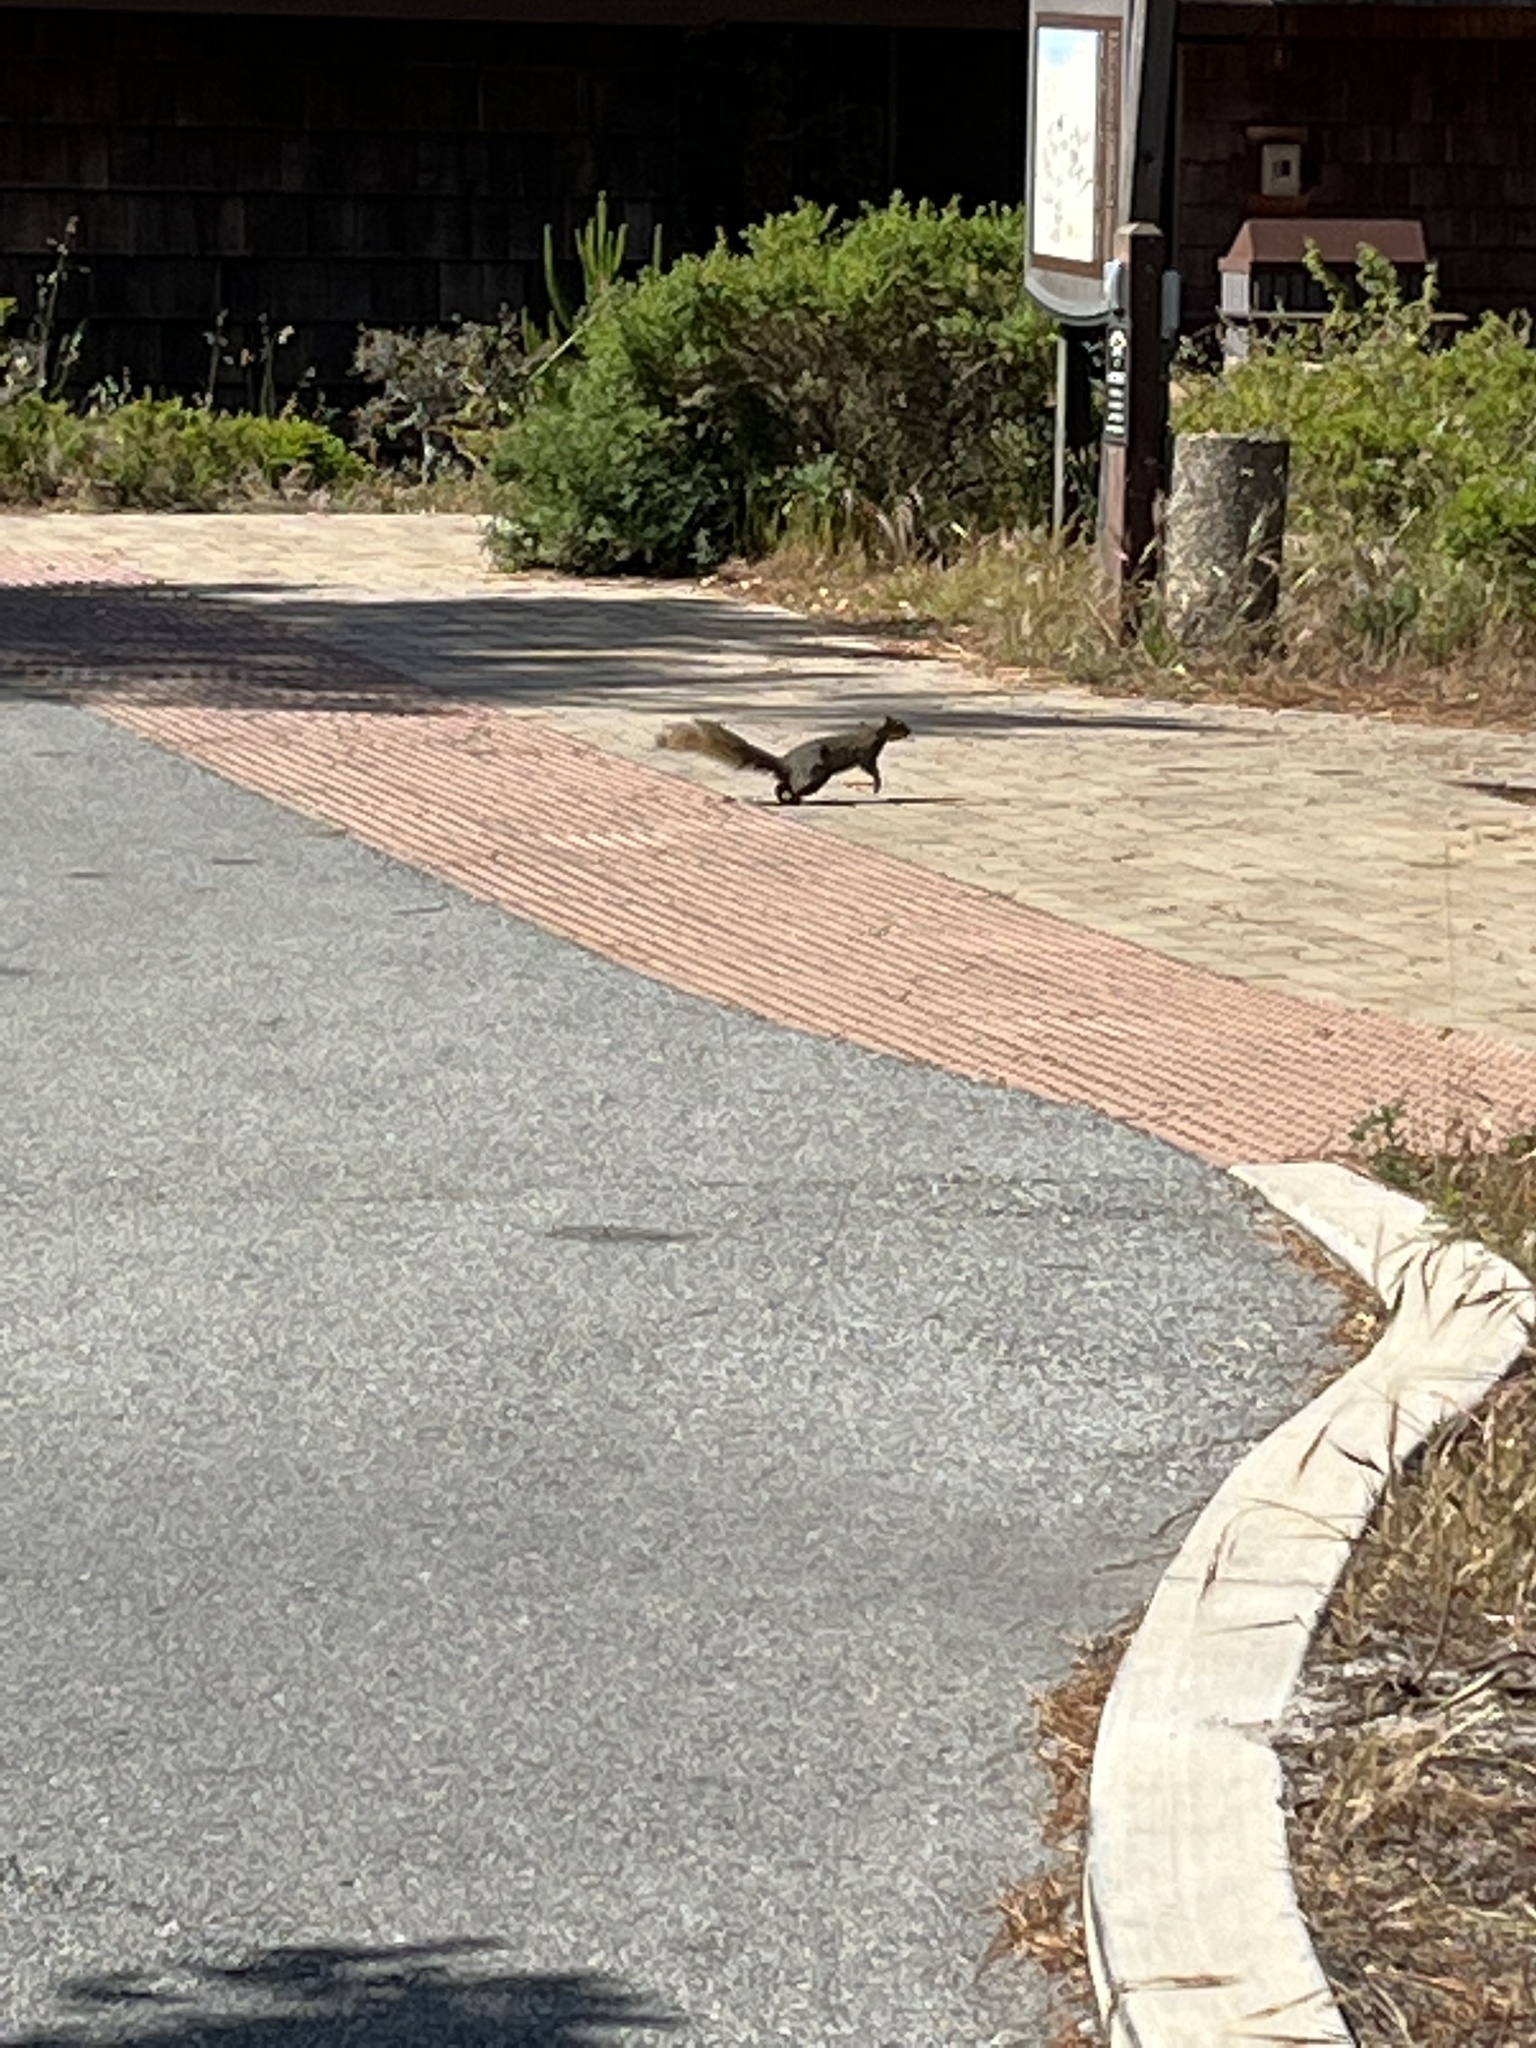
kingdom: Animalia
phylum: Chordata
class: Mammalia
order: Rodentia
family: Sciuridae
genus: Sciurus
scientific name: Sciurus niger
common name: Fox squirrel
